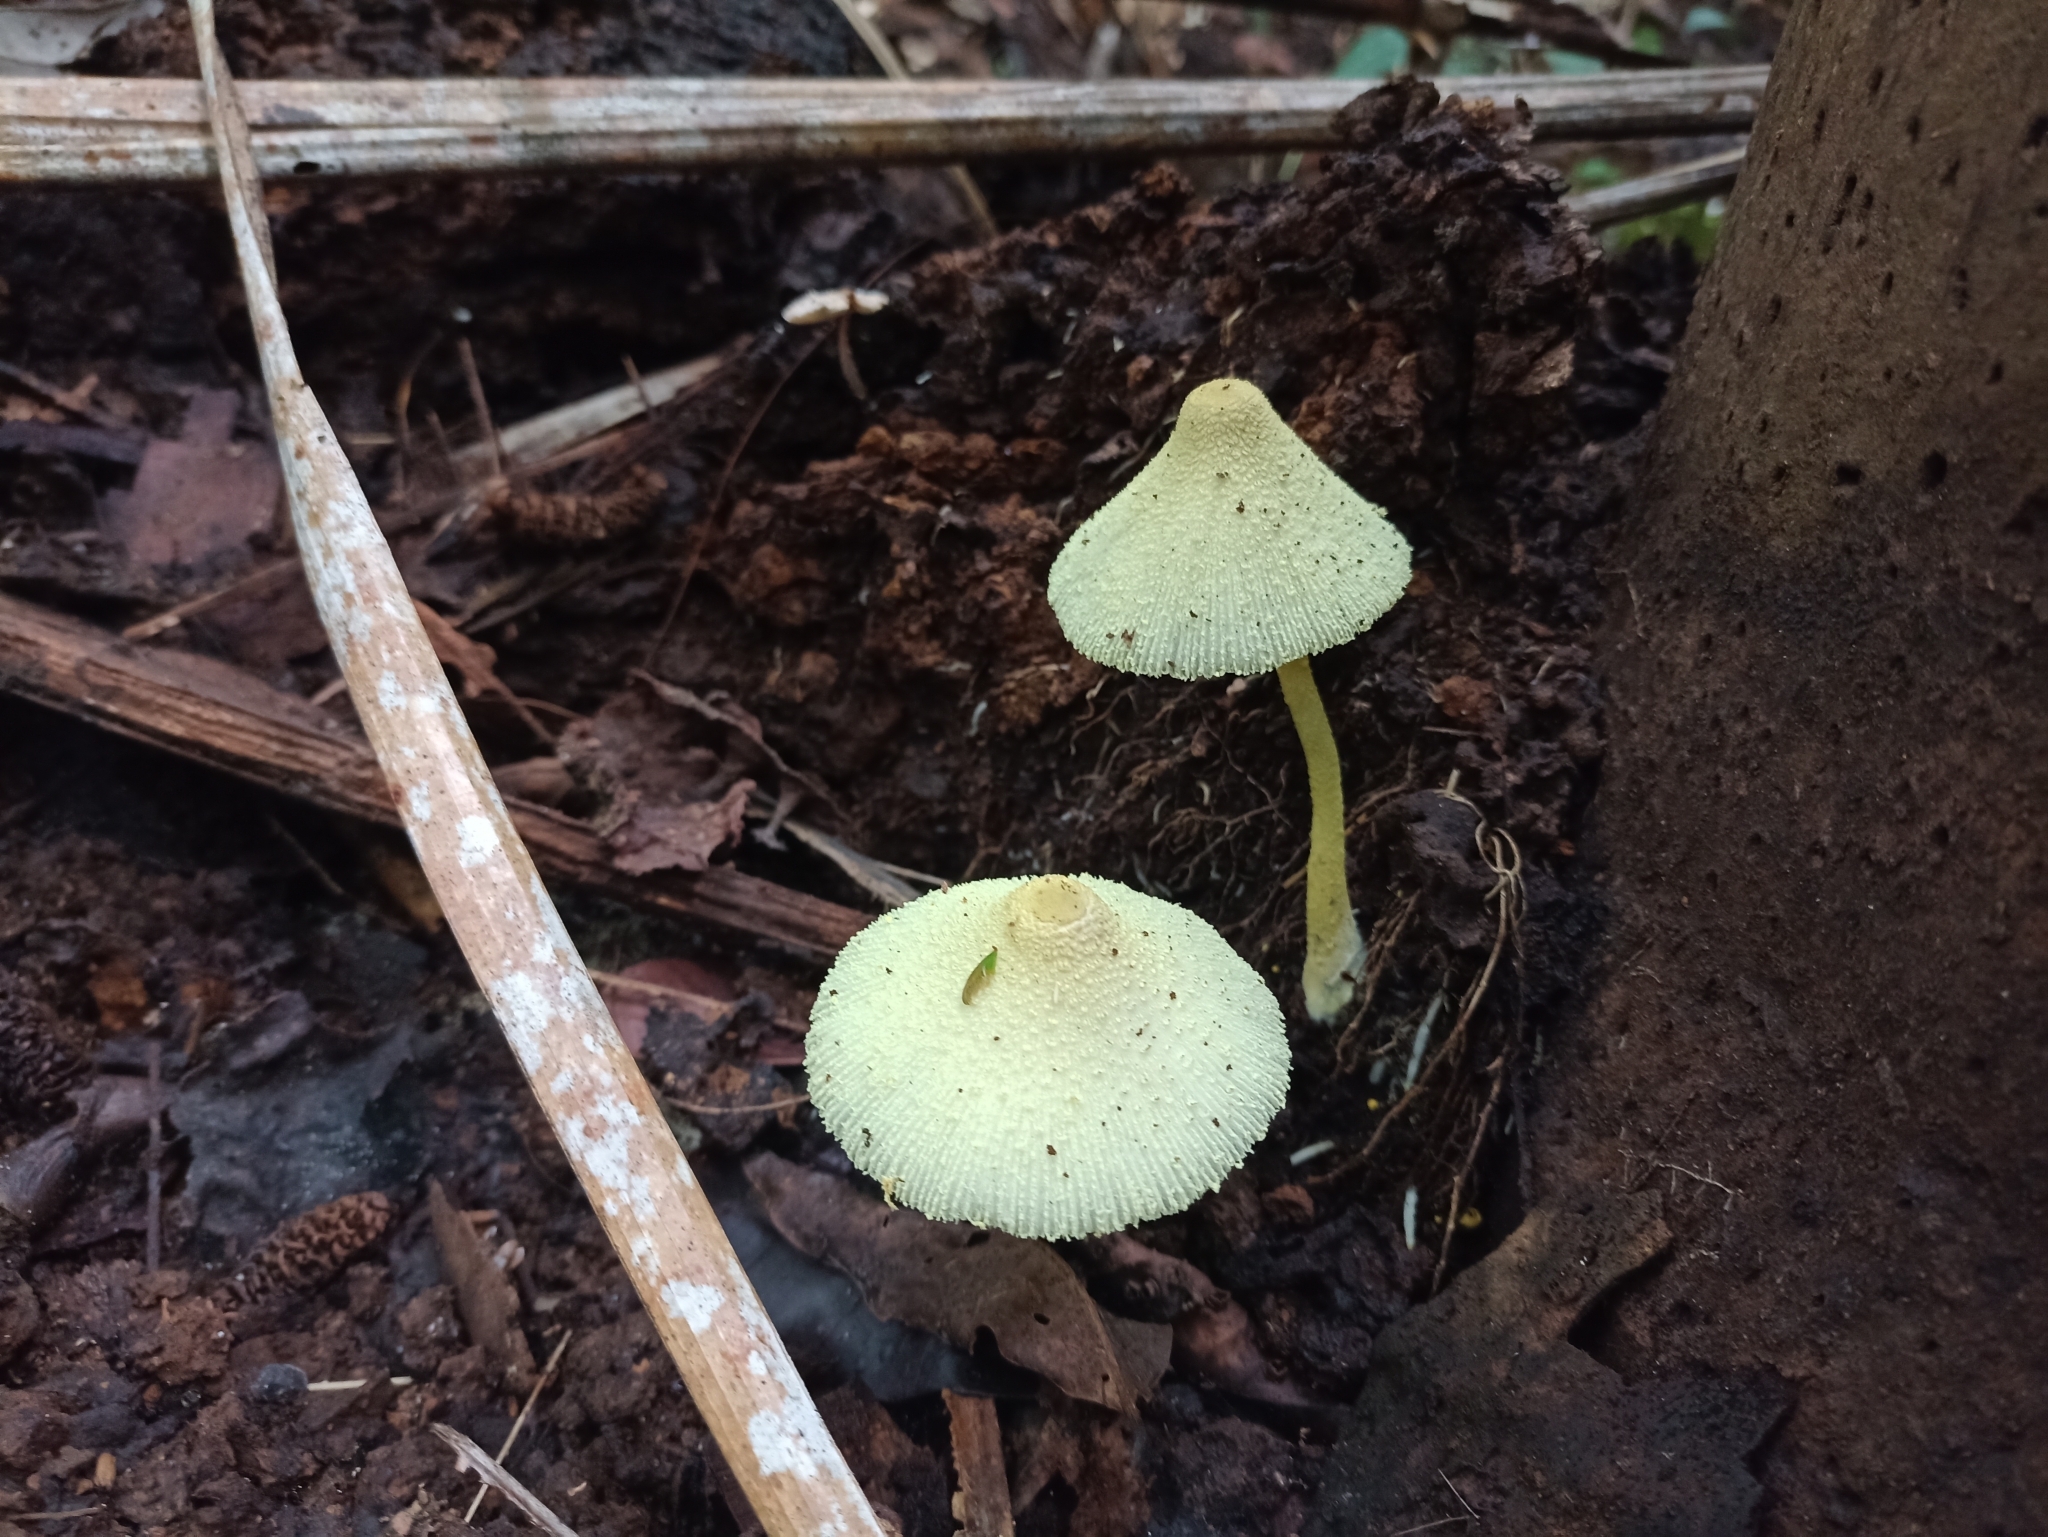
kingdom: Fungi
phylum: Basidiomycota
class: Agaricomycetes
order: Agaricales
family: Agaricaceae
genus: Leucocoprinus
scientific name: Leucocoprinus birnbaumii
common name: Plantpot dapperling
